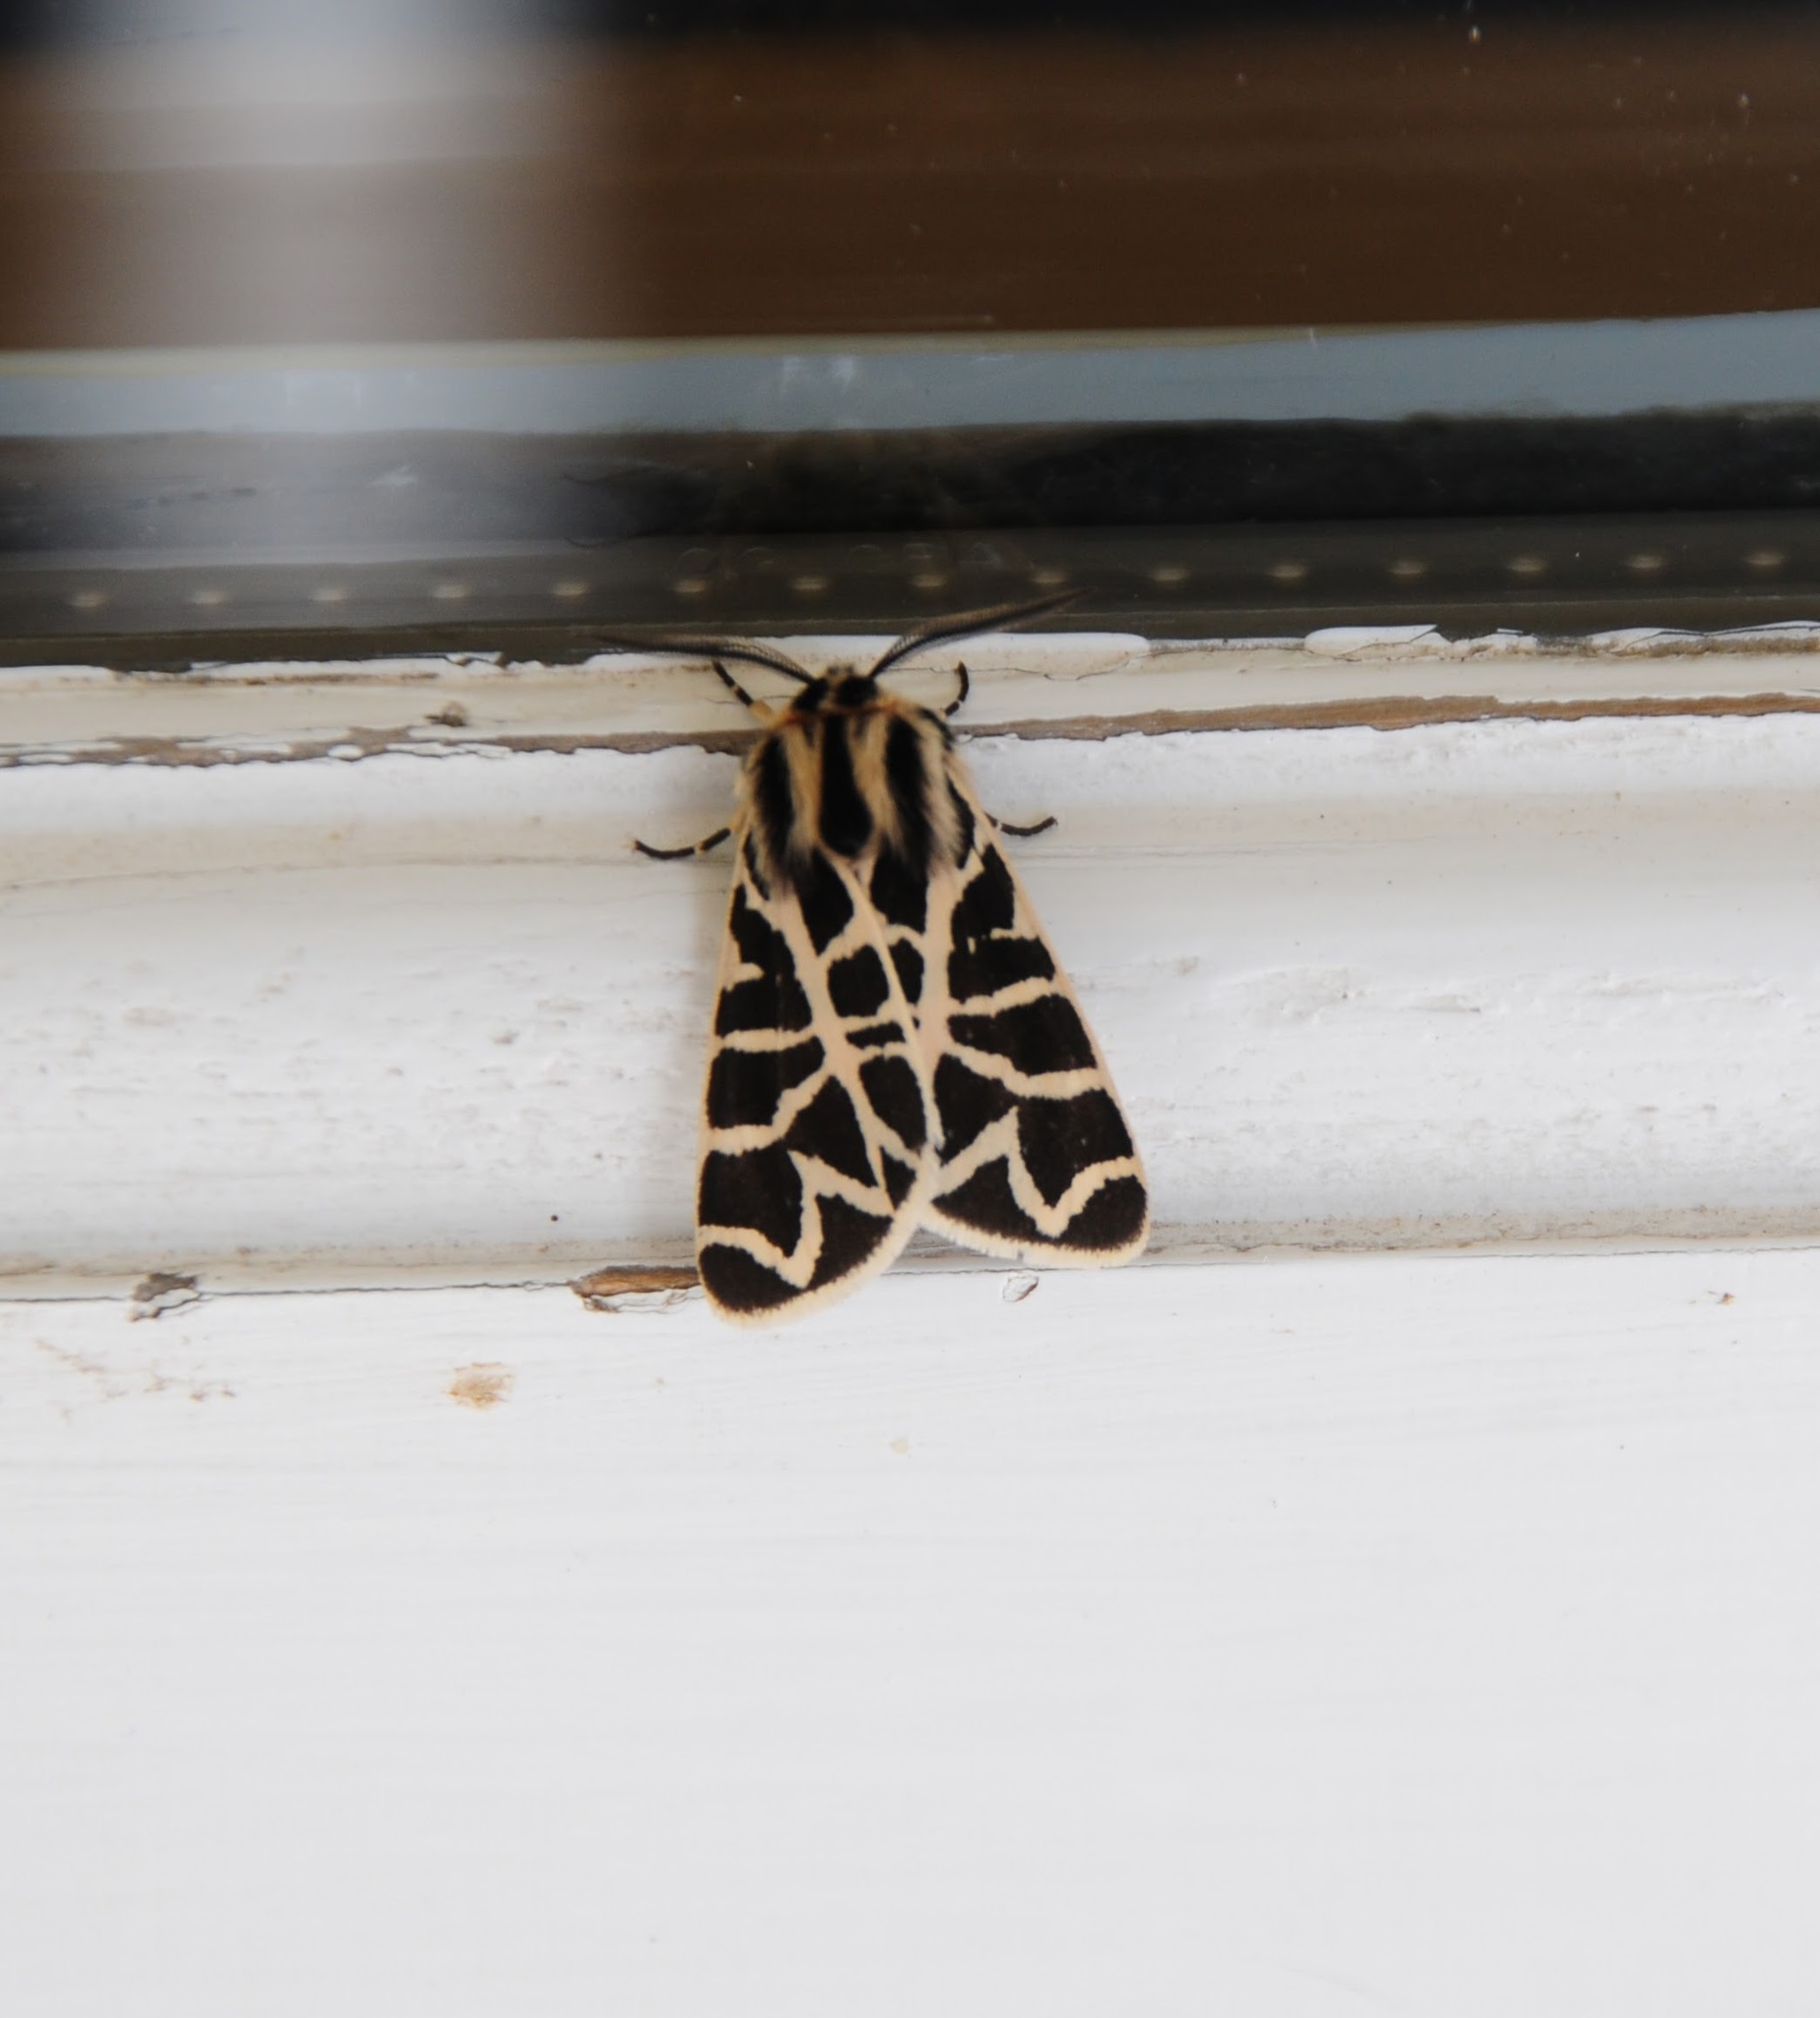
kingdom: Animalia
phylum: Arthropoda
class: Insecta
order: Lepidoptera
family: Erebidae
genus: Apantesis
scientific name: Apantesis
